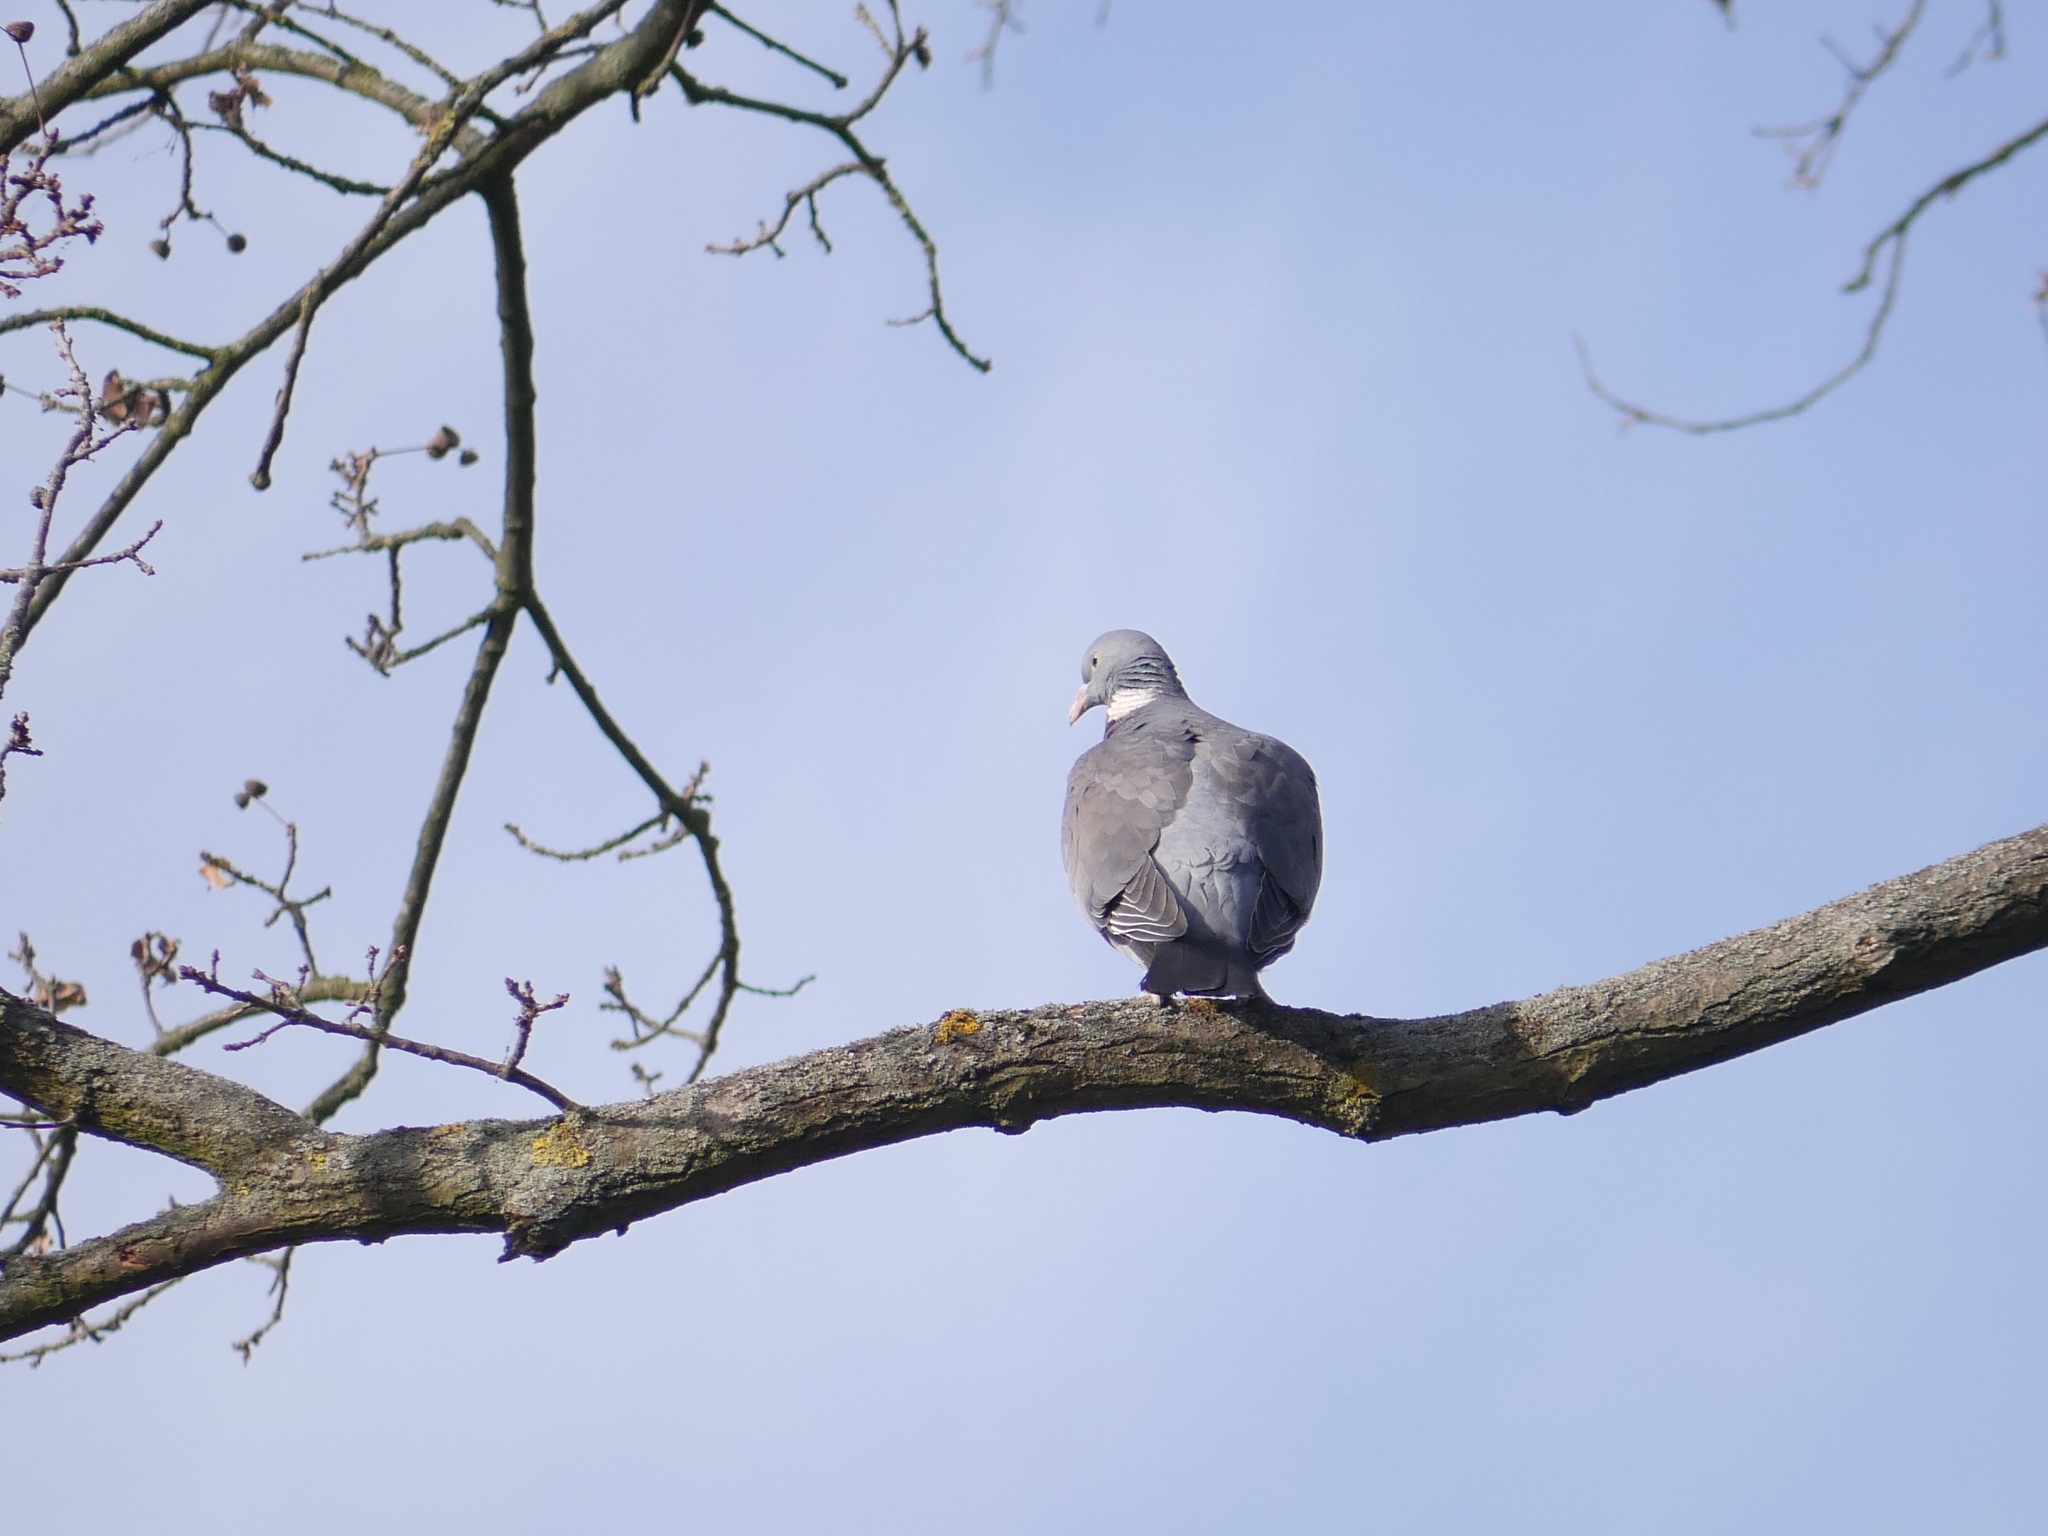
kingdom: Animalia
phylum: Chordata
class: Aves
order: Columbiformes
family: Columbidae
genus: Columba
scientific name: Columba palumbus
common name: Common wood pigeon
